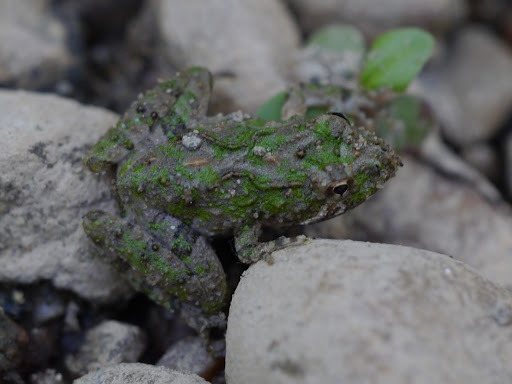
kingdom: Animalia
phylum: Chordata
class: Amphibia
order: Anura
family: Hylidae
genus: Acris
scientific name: Acris crepitans
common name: Northern cricket frog
